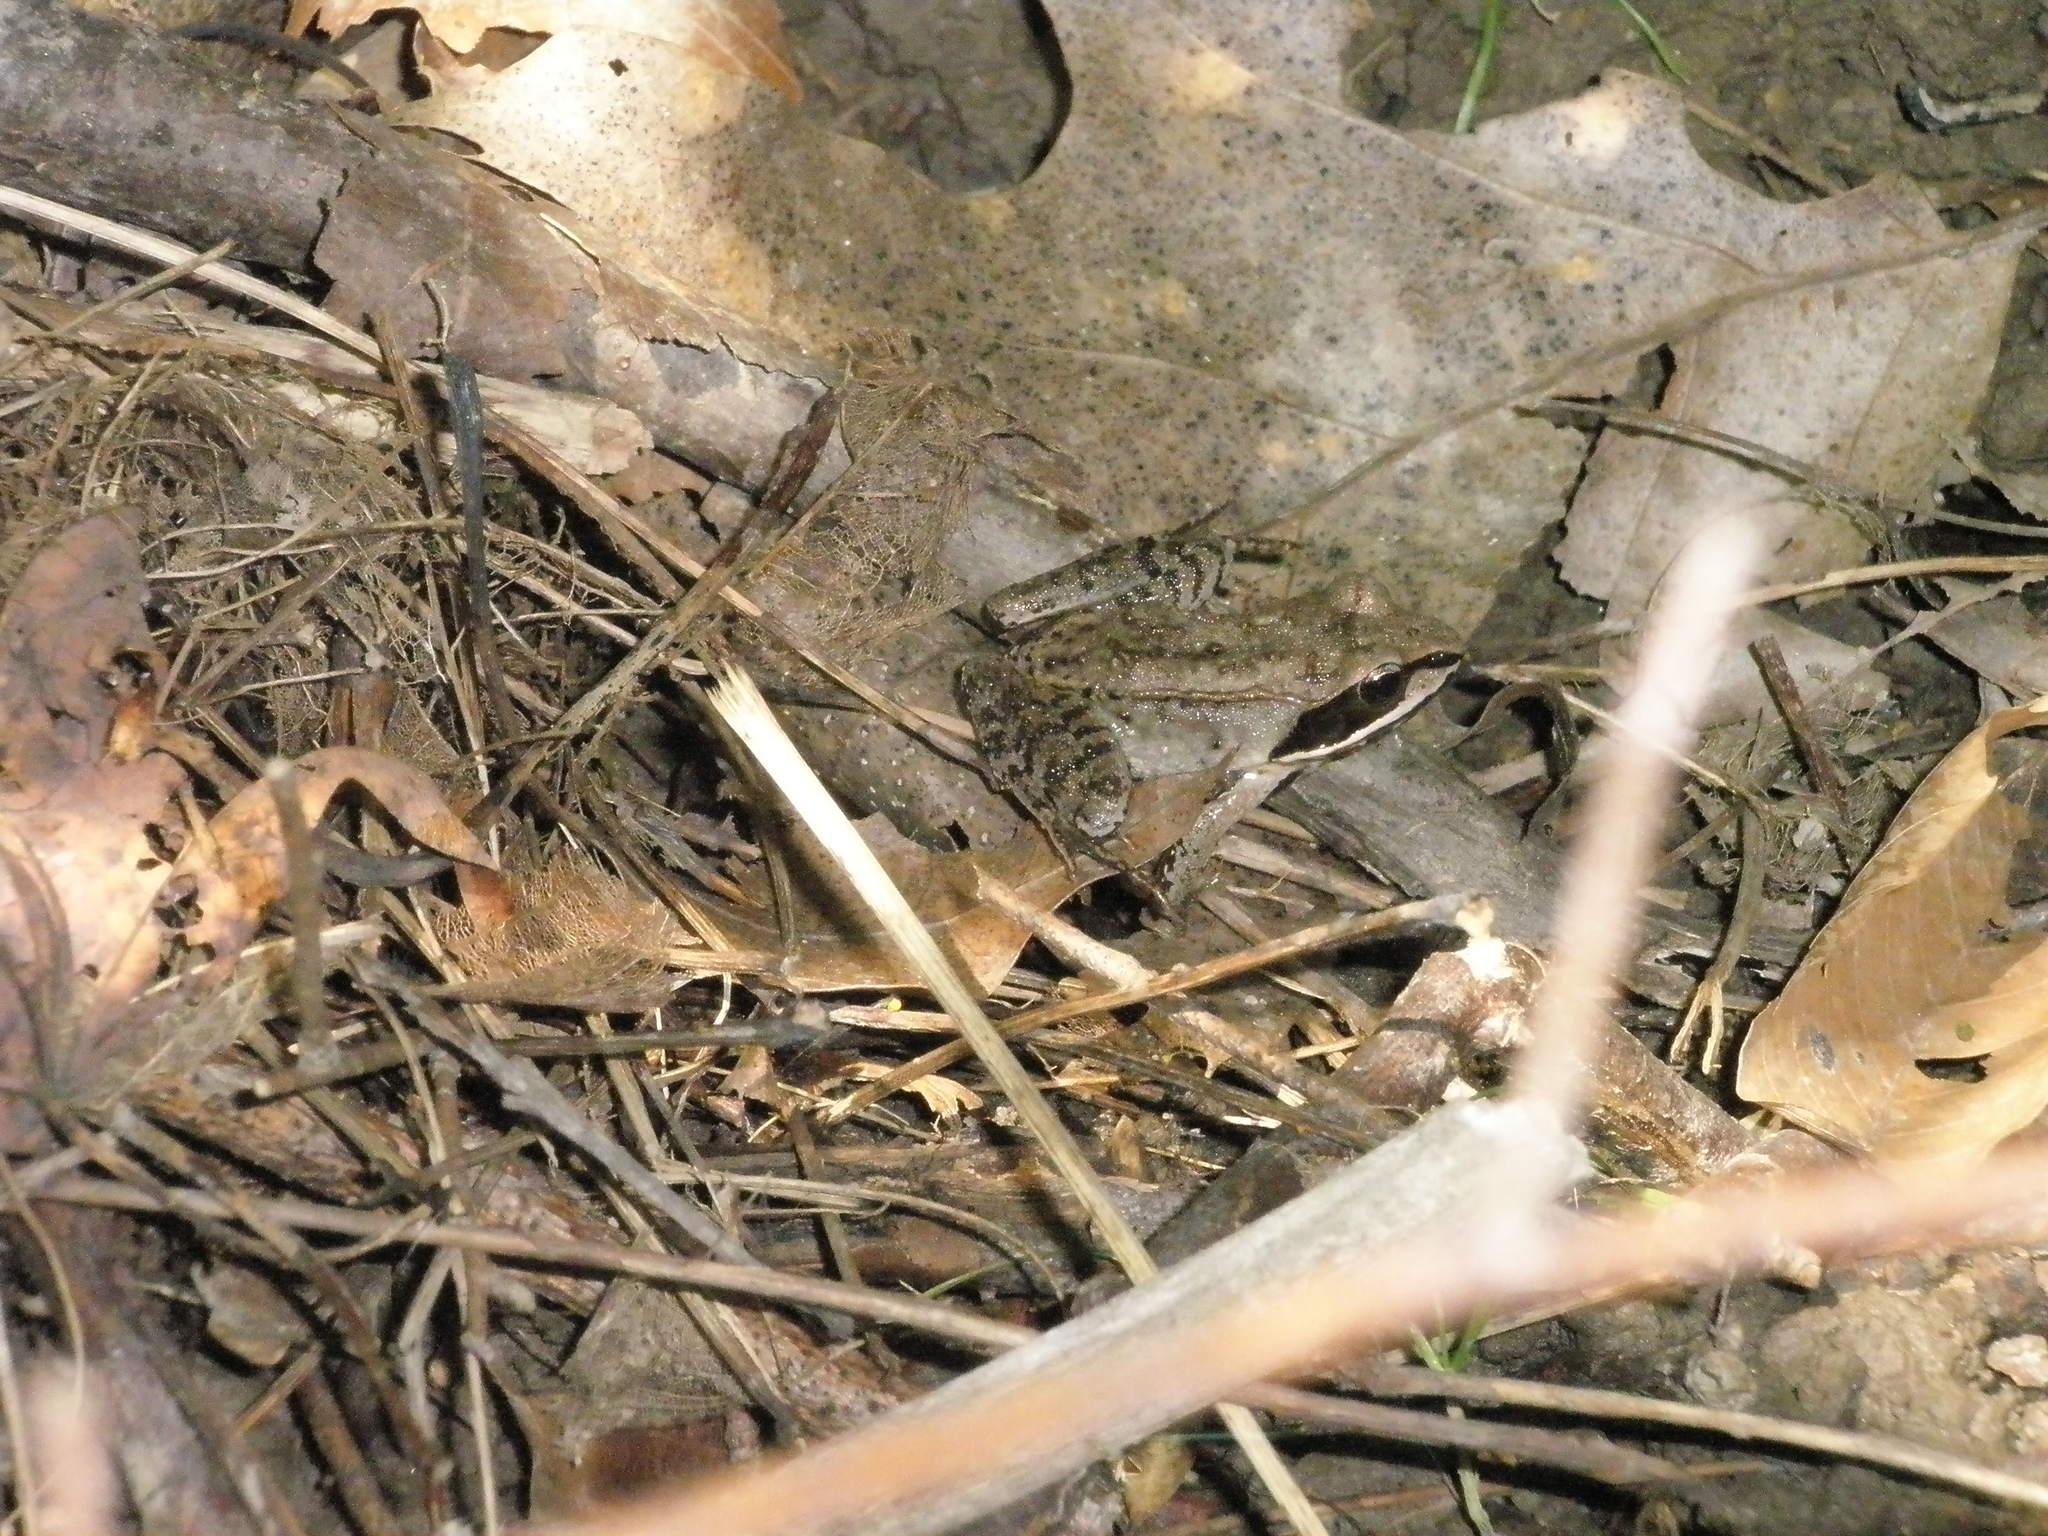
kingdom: Animalia
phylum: Chordata
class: Amphibia
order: Anura
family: Ranidae
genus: Lithobates
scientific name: Lithobates sylvaticus
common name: Wood frog
